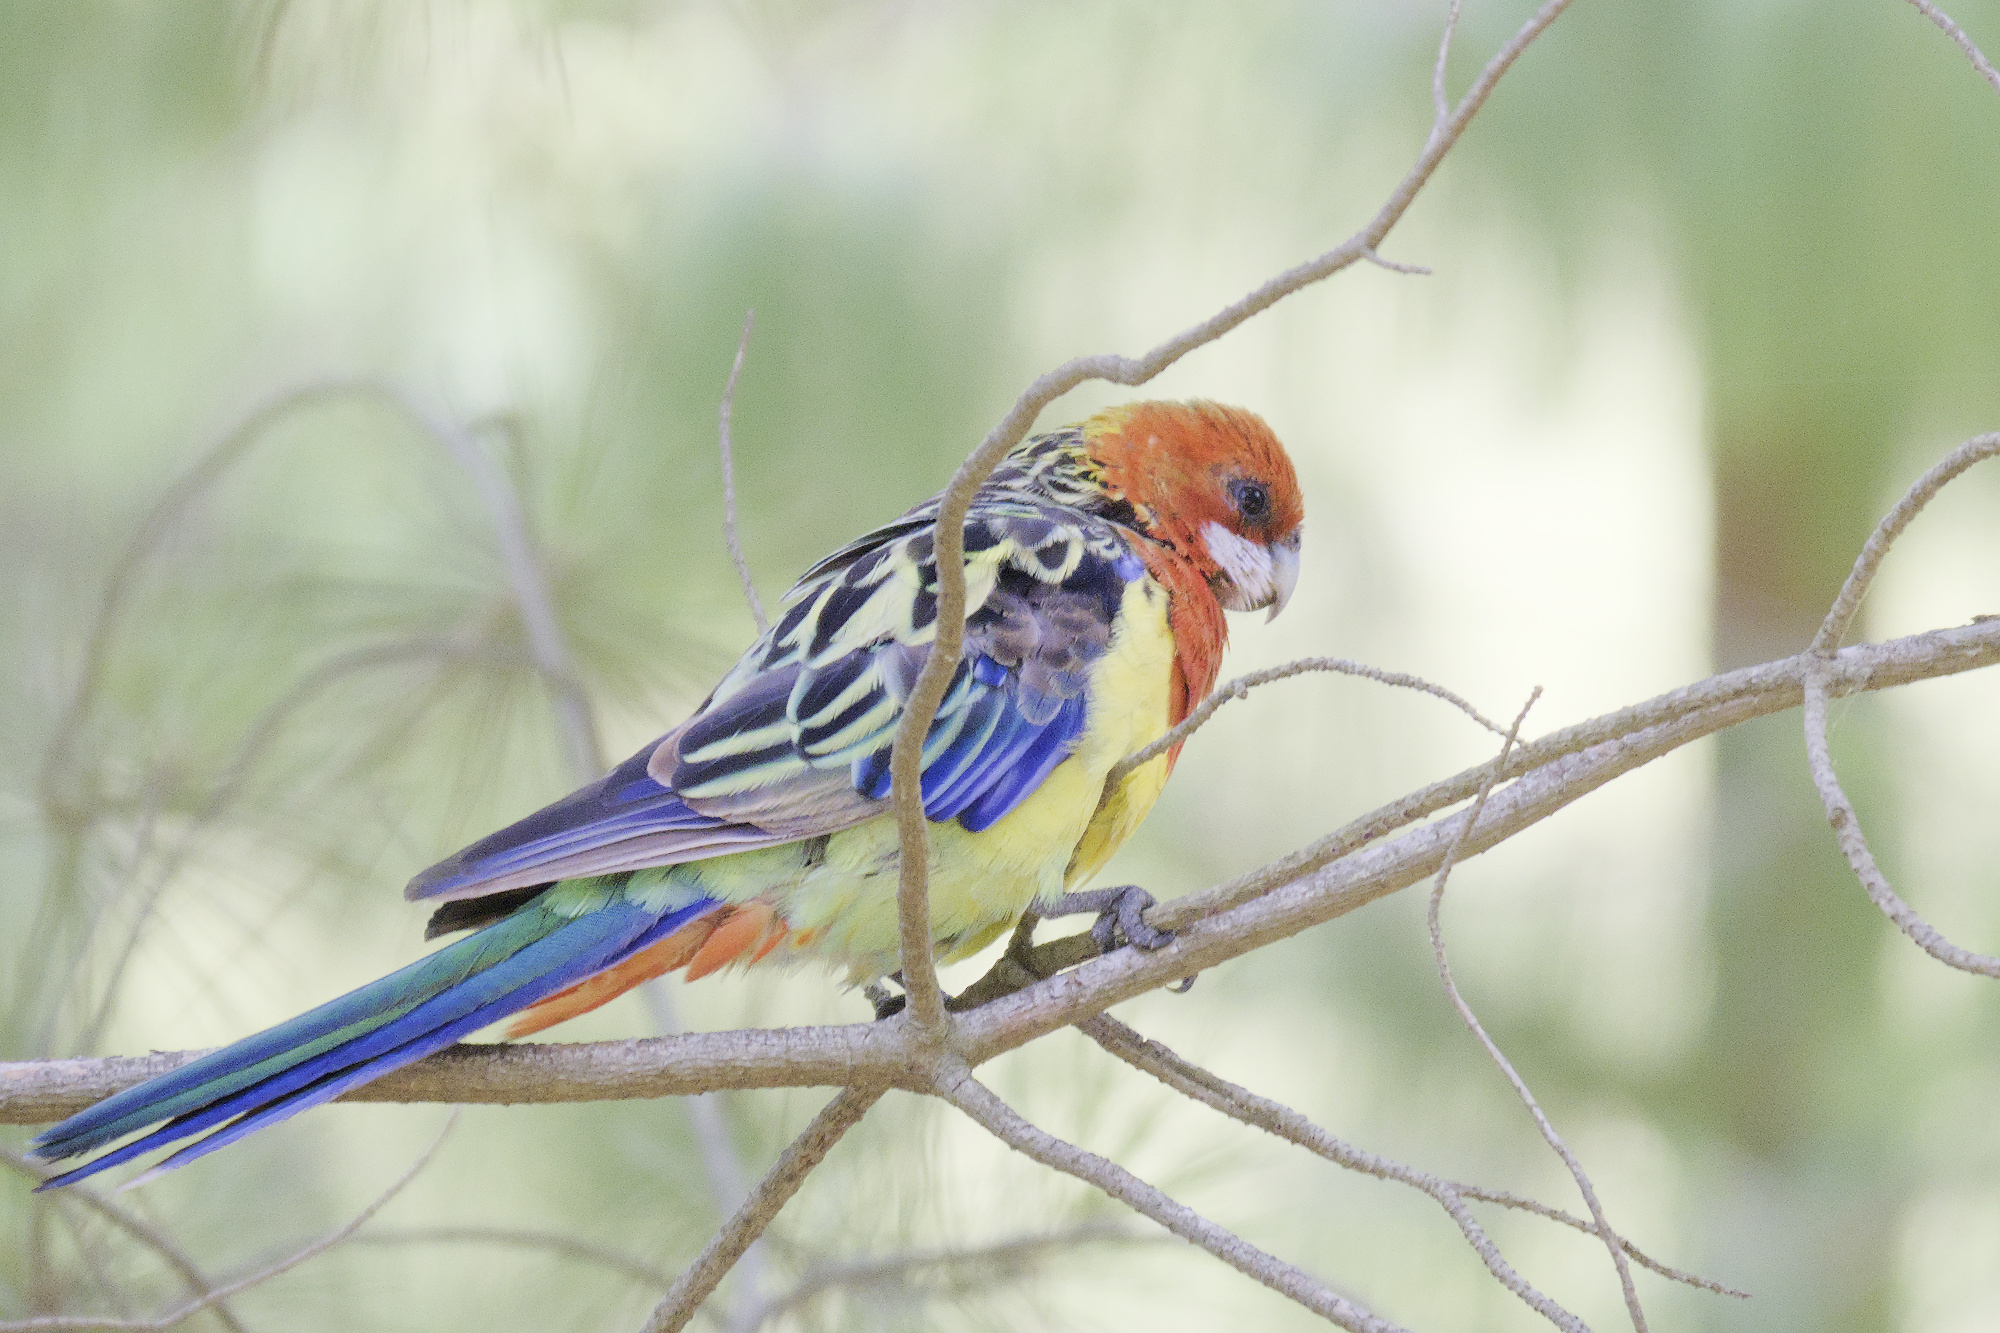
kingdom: Animalia
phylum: Chordata
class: Aves
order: Psittaciformes
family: Psittacidae
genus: Platycercus
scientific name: Platycercus eximius
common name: Eastern rosella
